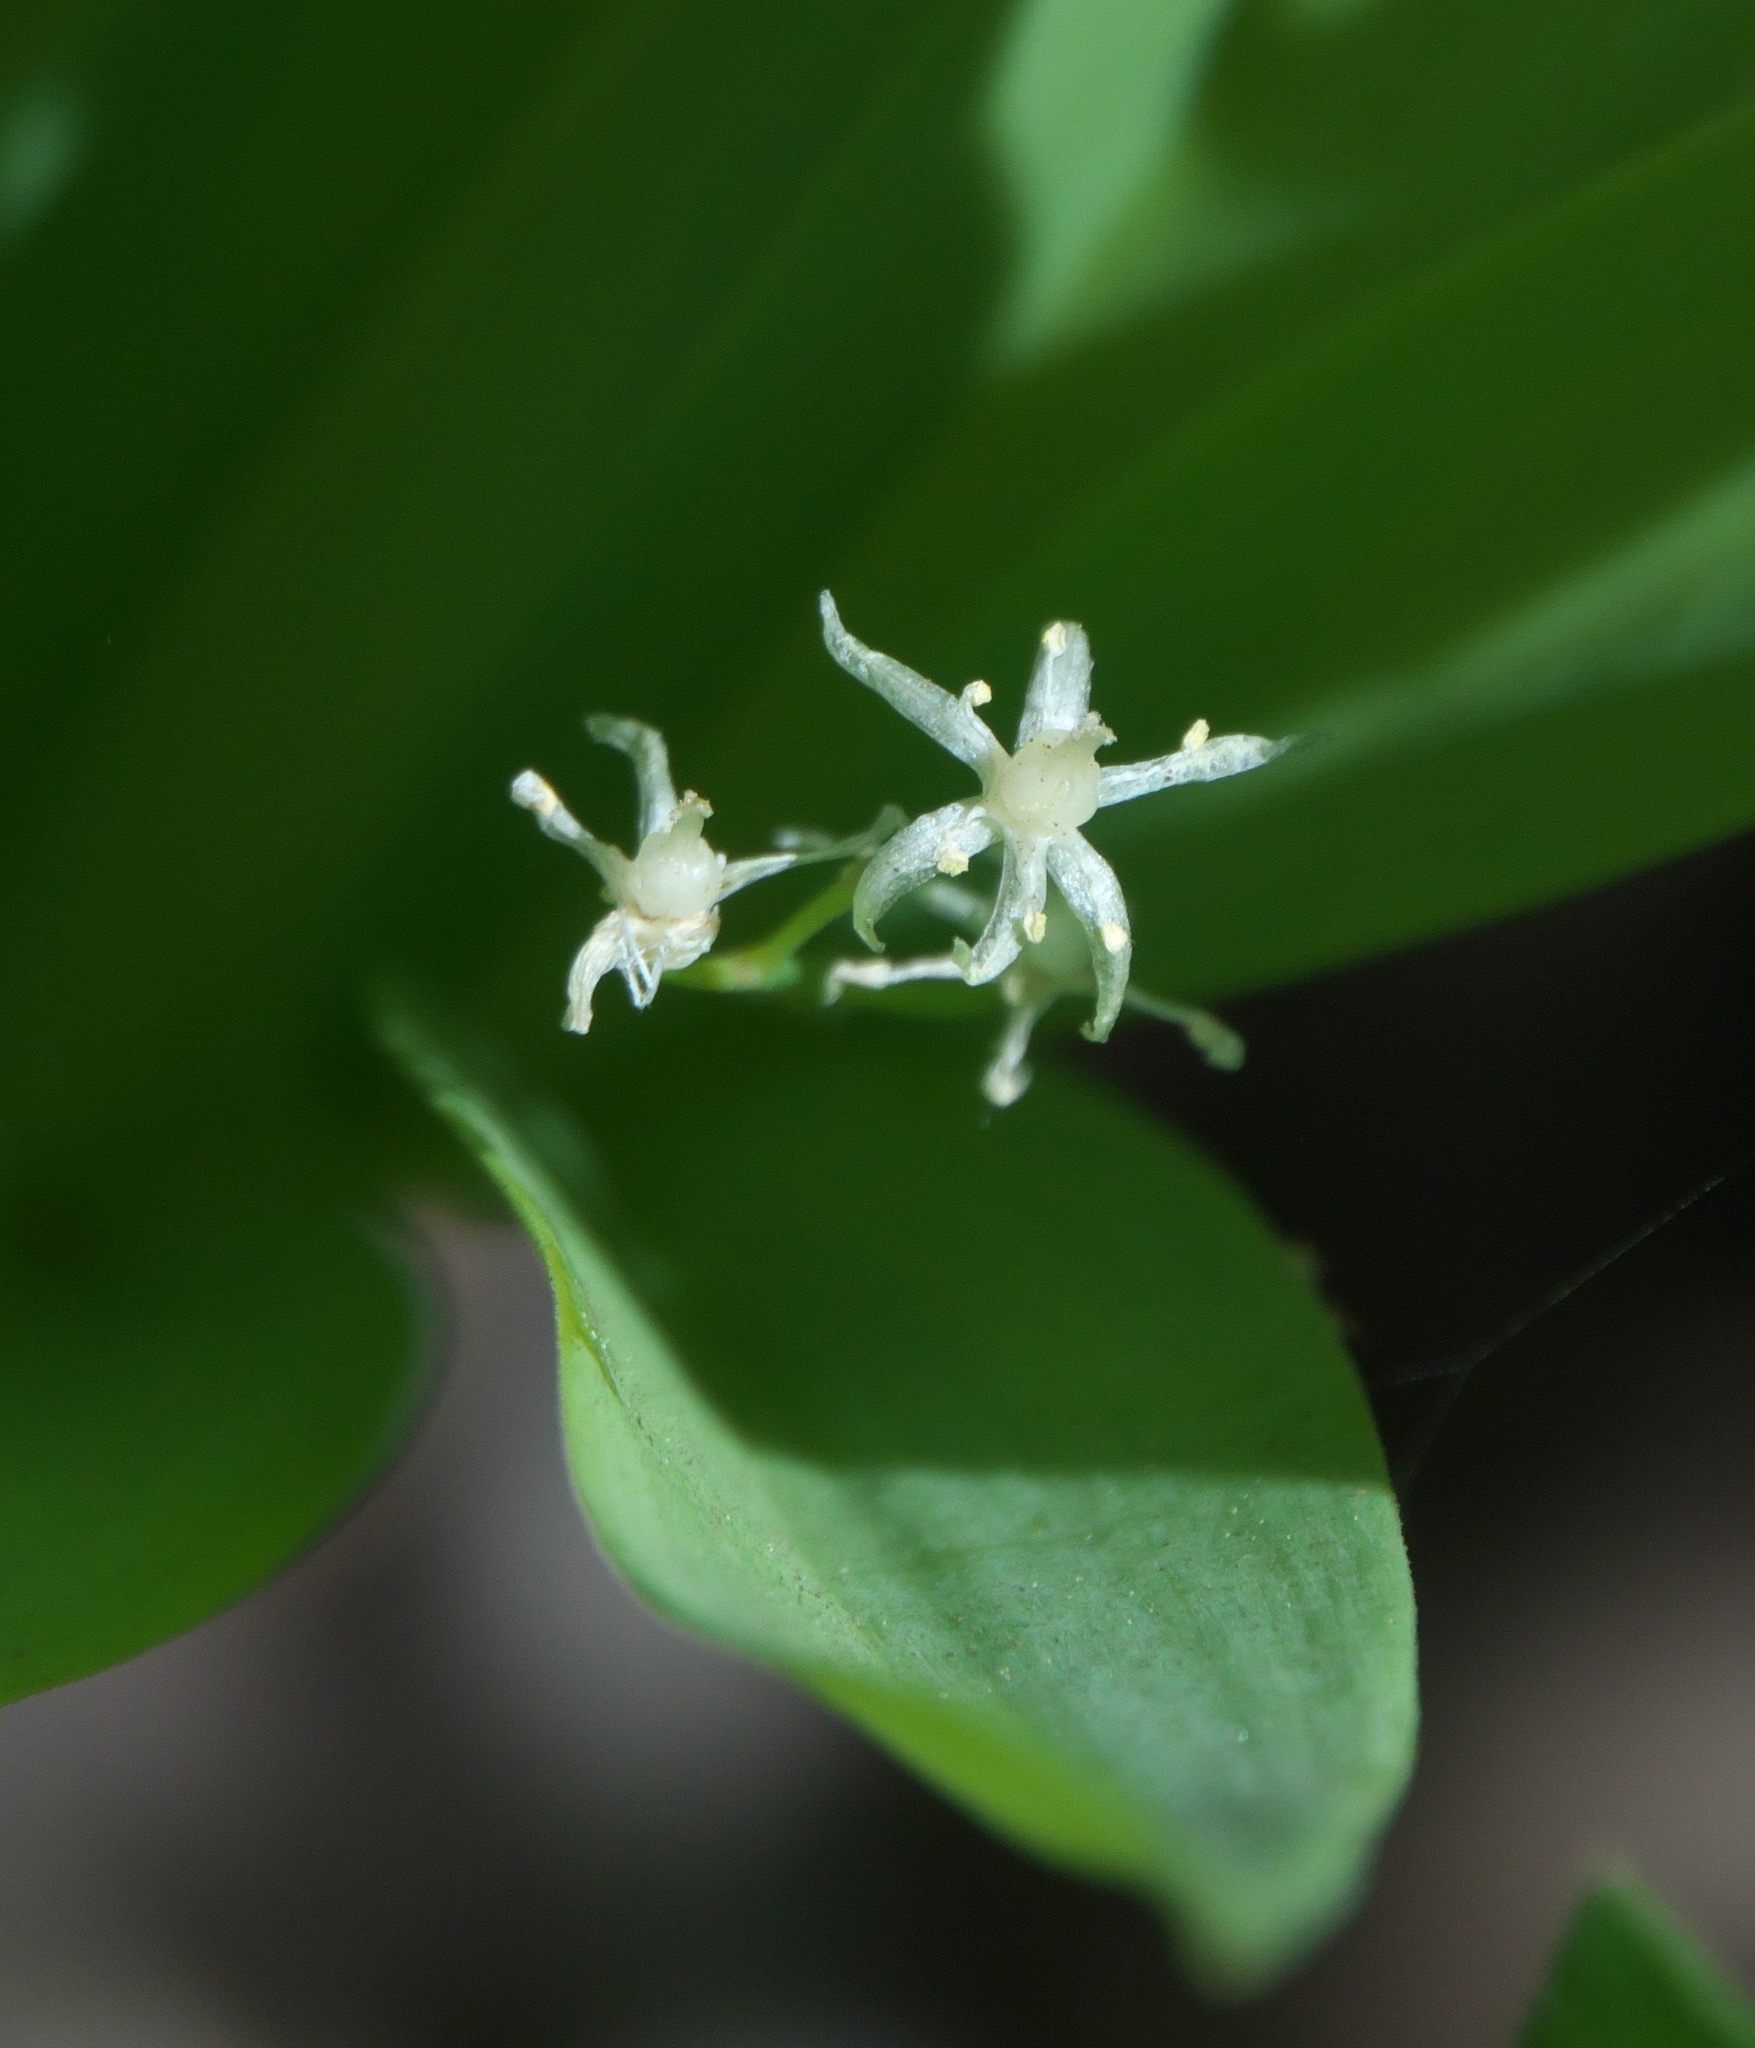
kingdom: Plantae
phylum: Tracheophyta
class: Liliopsida
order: Asparagales
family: Asparagaceae
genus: Maianthemum
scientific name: Maianthemum stellatum
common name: Little false solomon's seal
